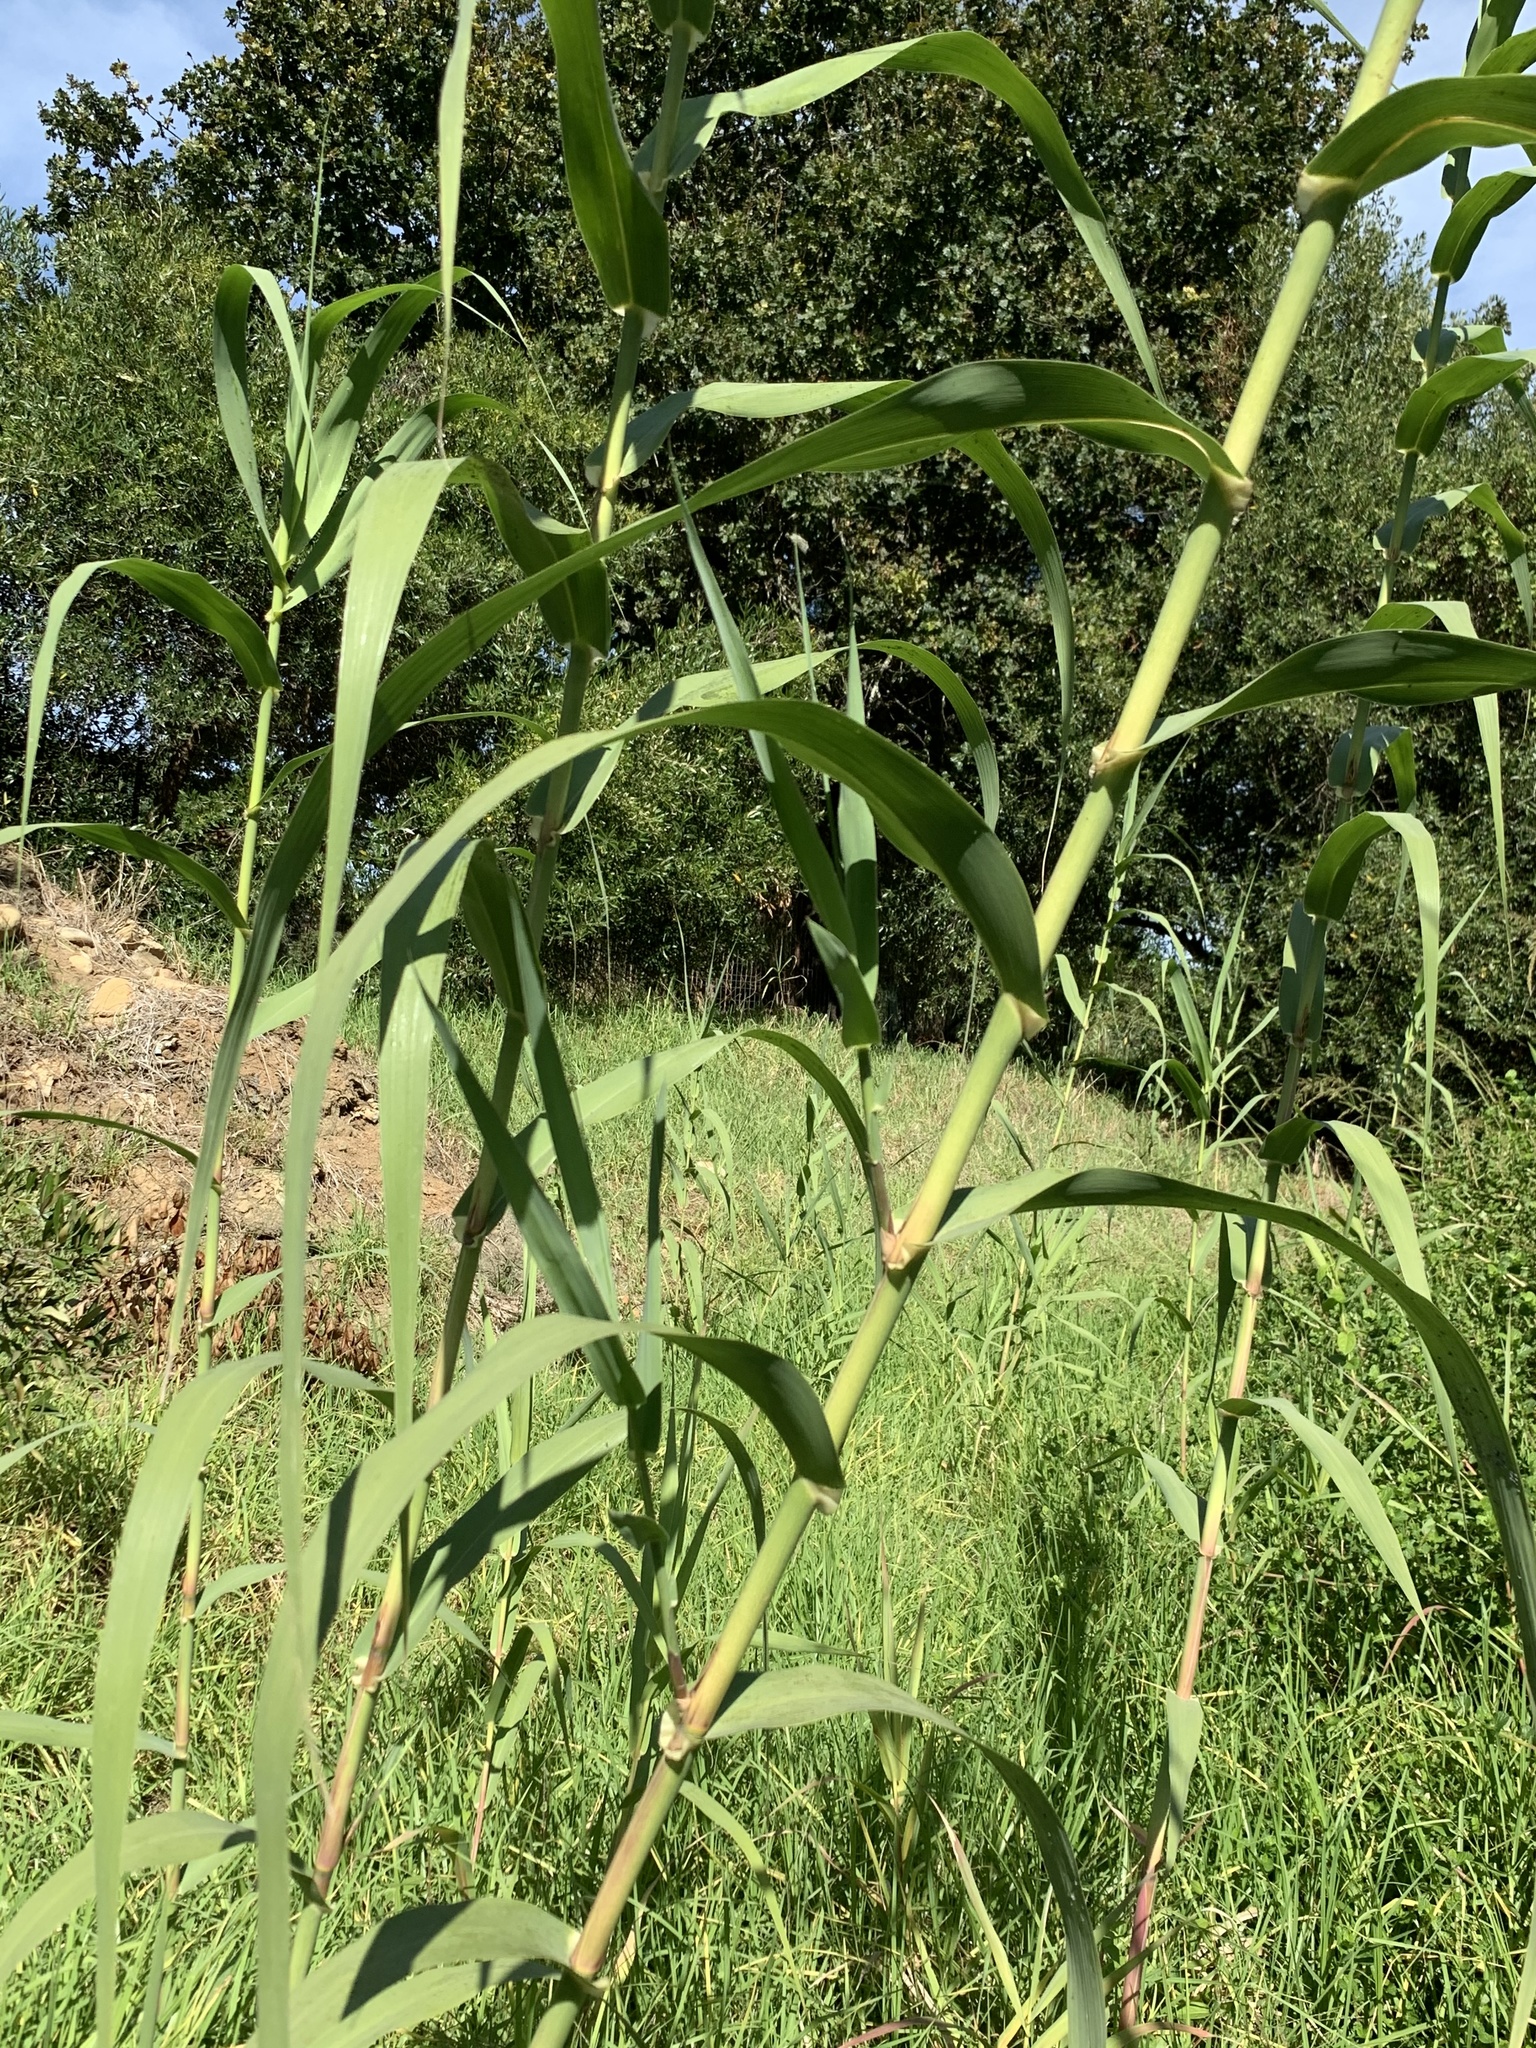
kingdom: Plantae
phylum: Tracheophyta
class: Liliopsida
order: Poales
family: Poaceae
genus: Arundo
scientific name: Arundo donax
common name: Giant reed
